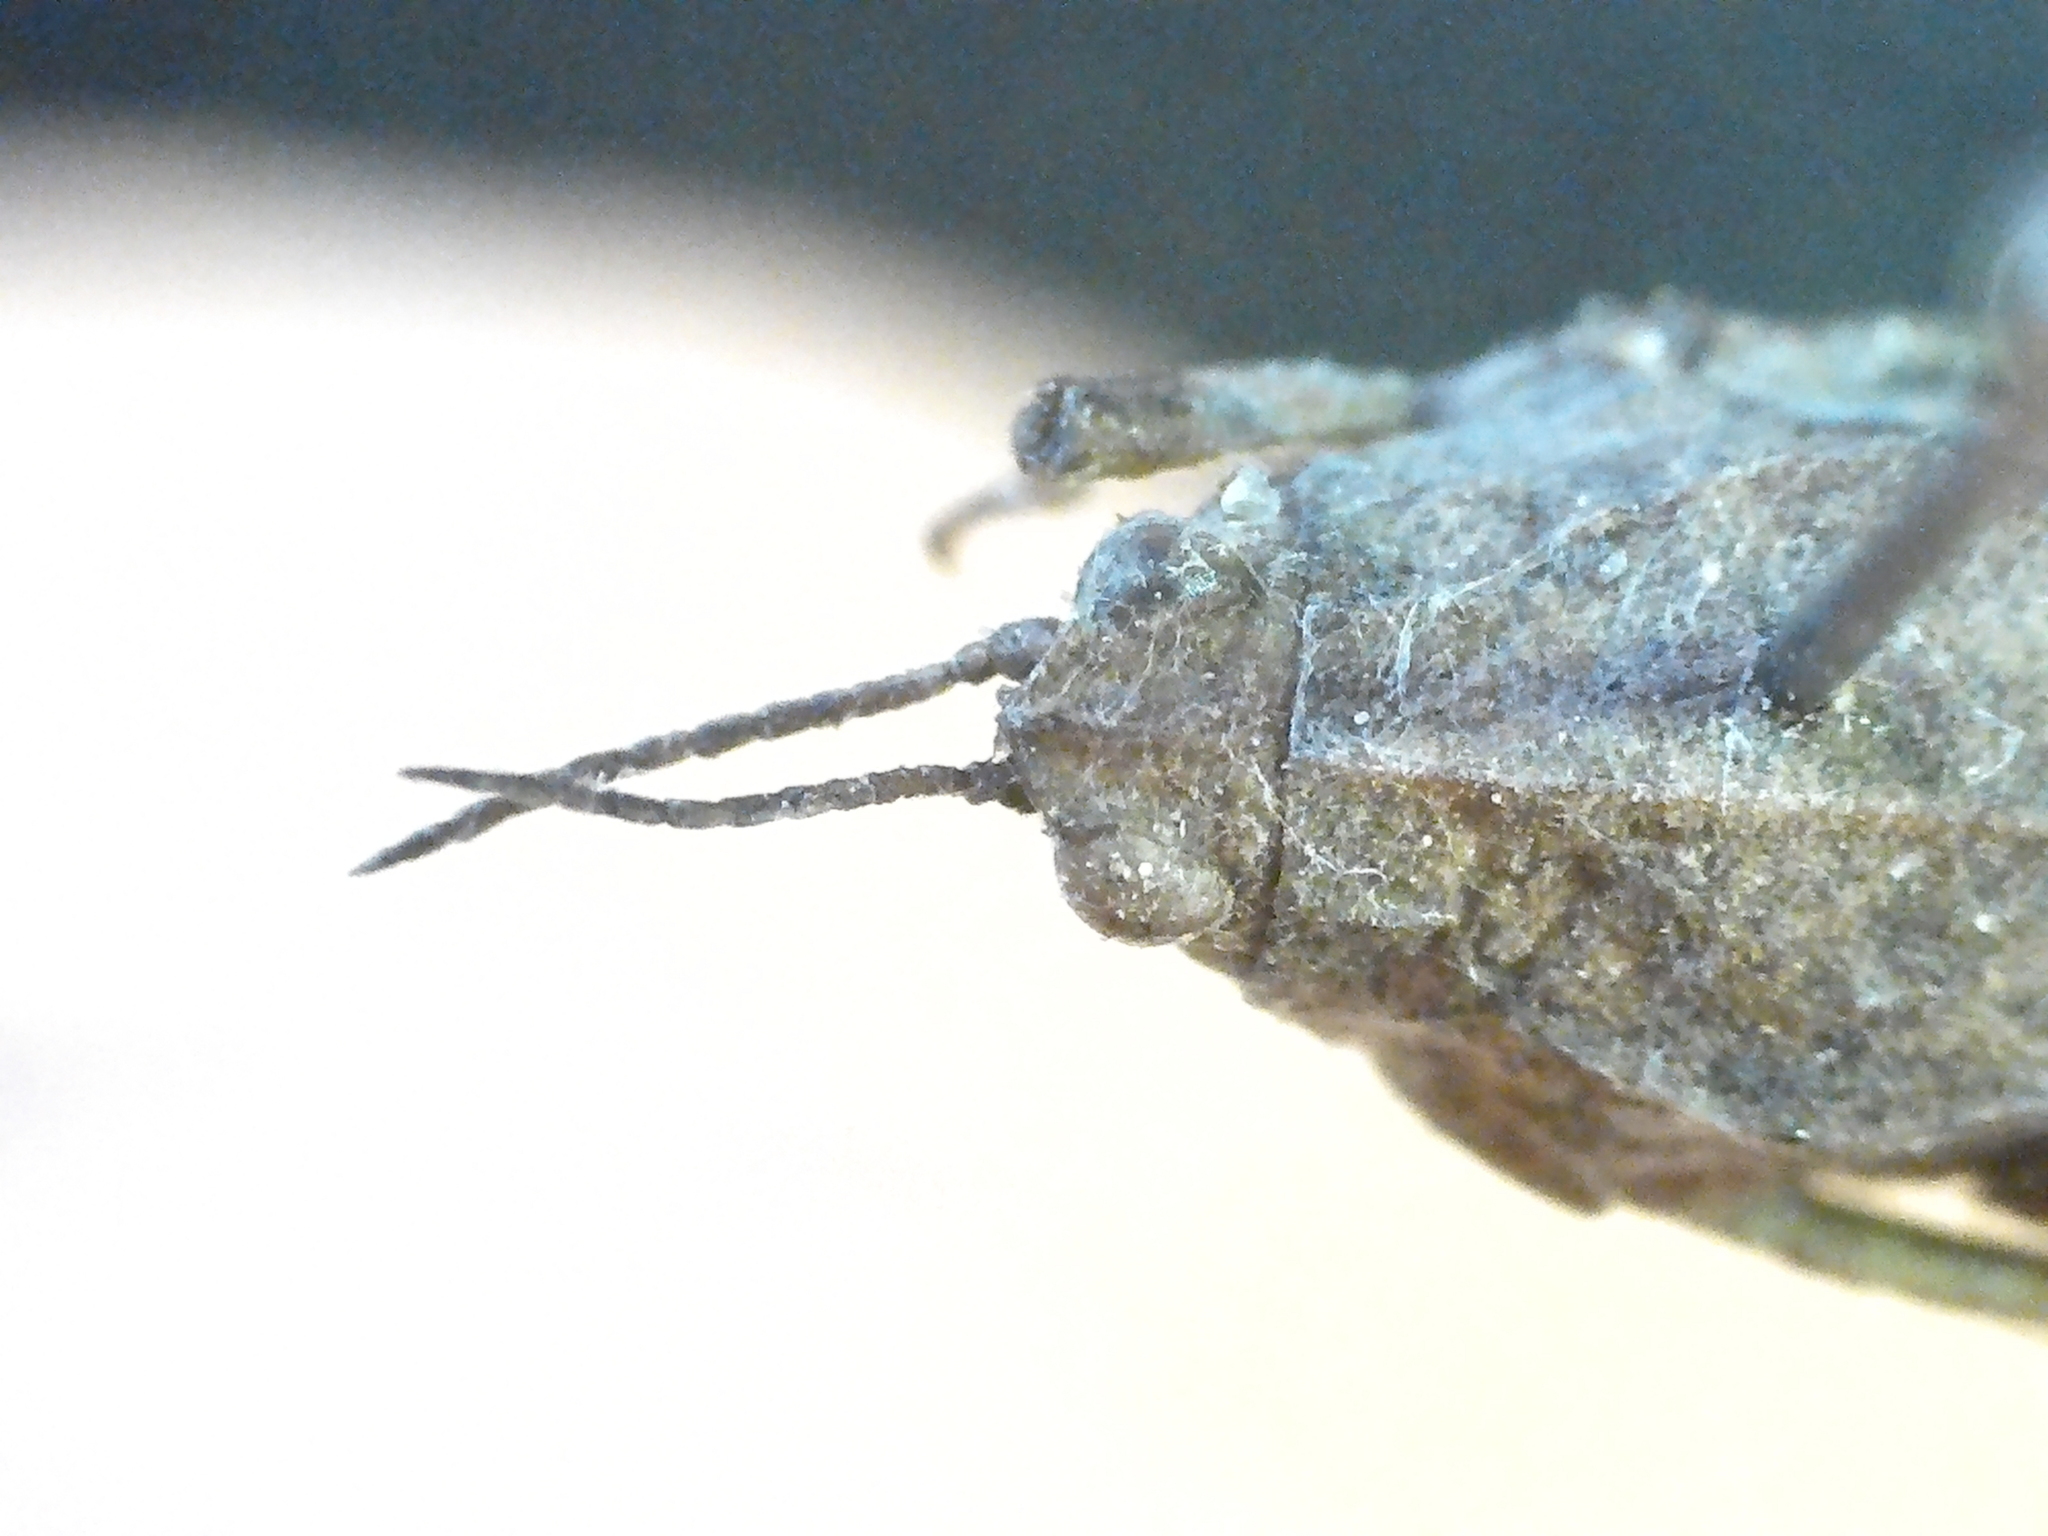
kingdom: Animalia
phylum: Arthropoda
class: Insecta
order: Orthoptera
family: Tetrigidae
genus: Tetrix
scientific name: Tetrix subulata
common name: Slender ground-hopper
